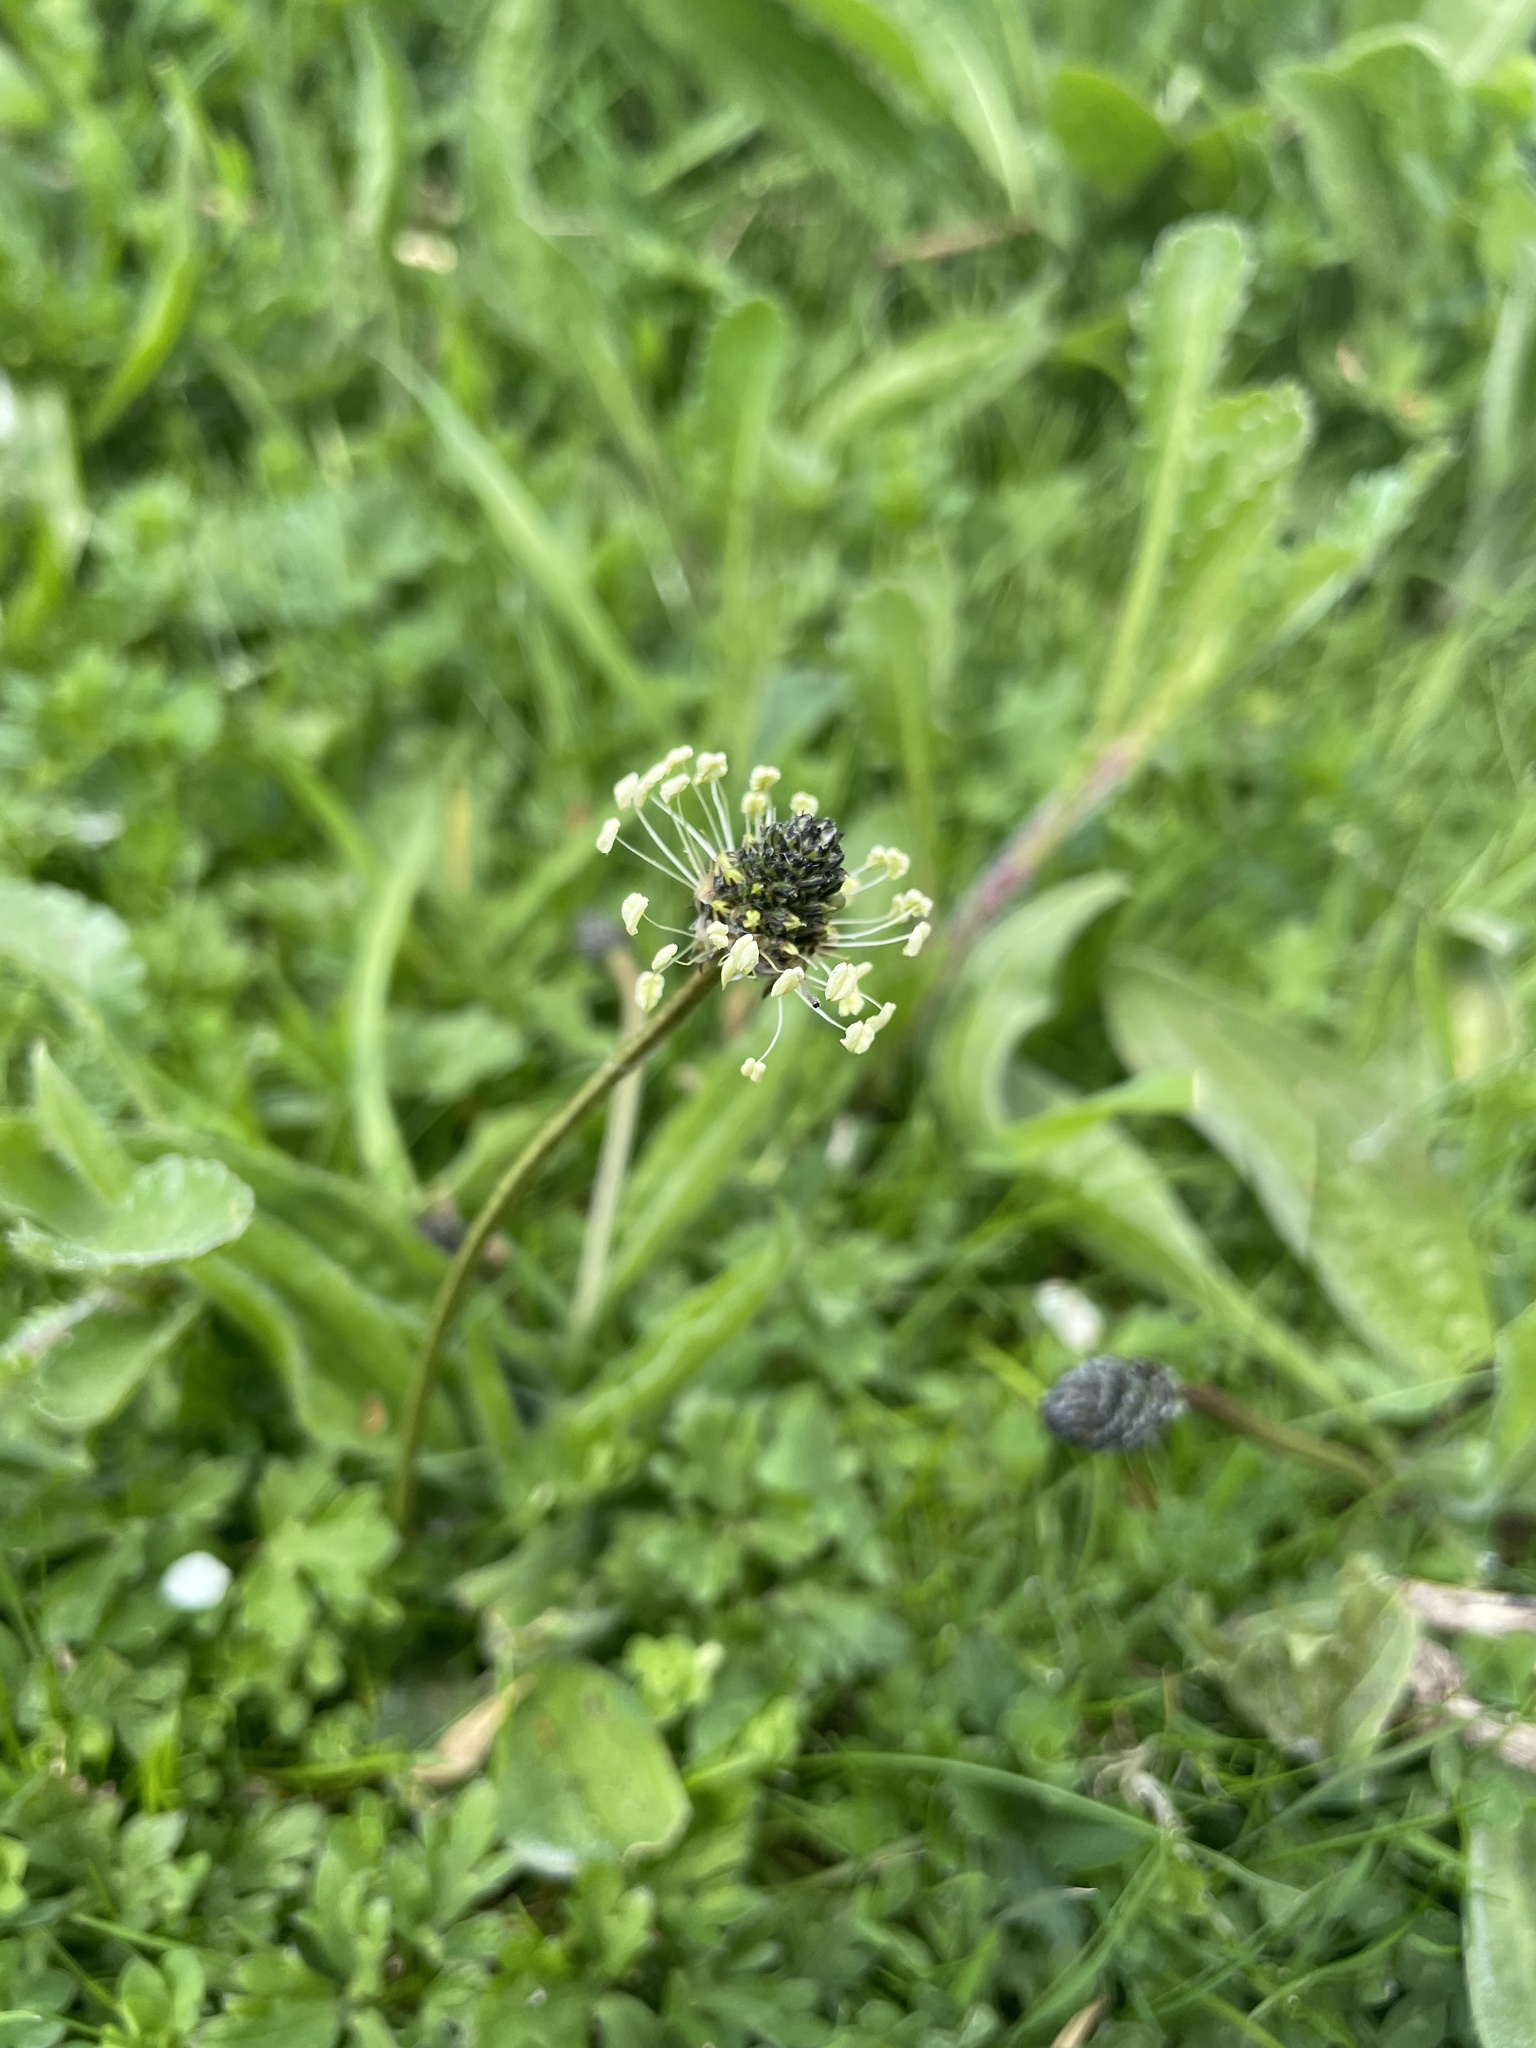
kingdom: Plantae
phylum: Tracheophyta
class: Magnoliopsida
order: Lamiales
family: Plantaginaceae
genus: Plantago
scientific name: Plantago lanceolata
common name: Ribwort plantain
